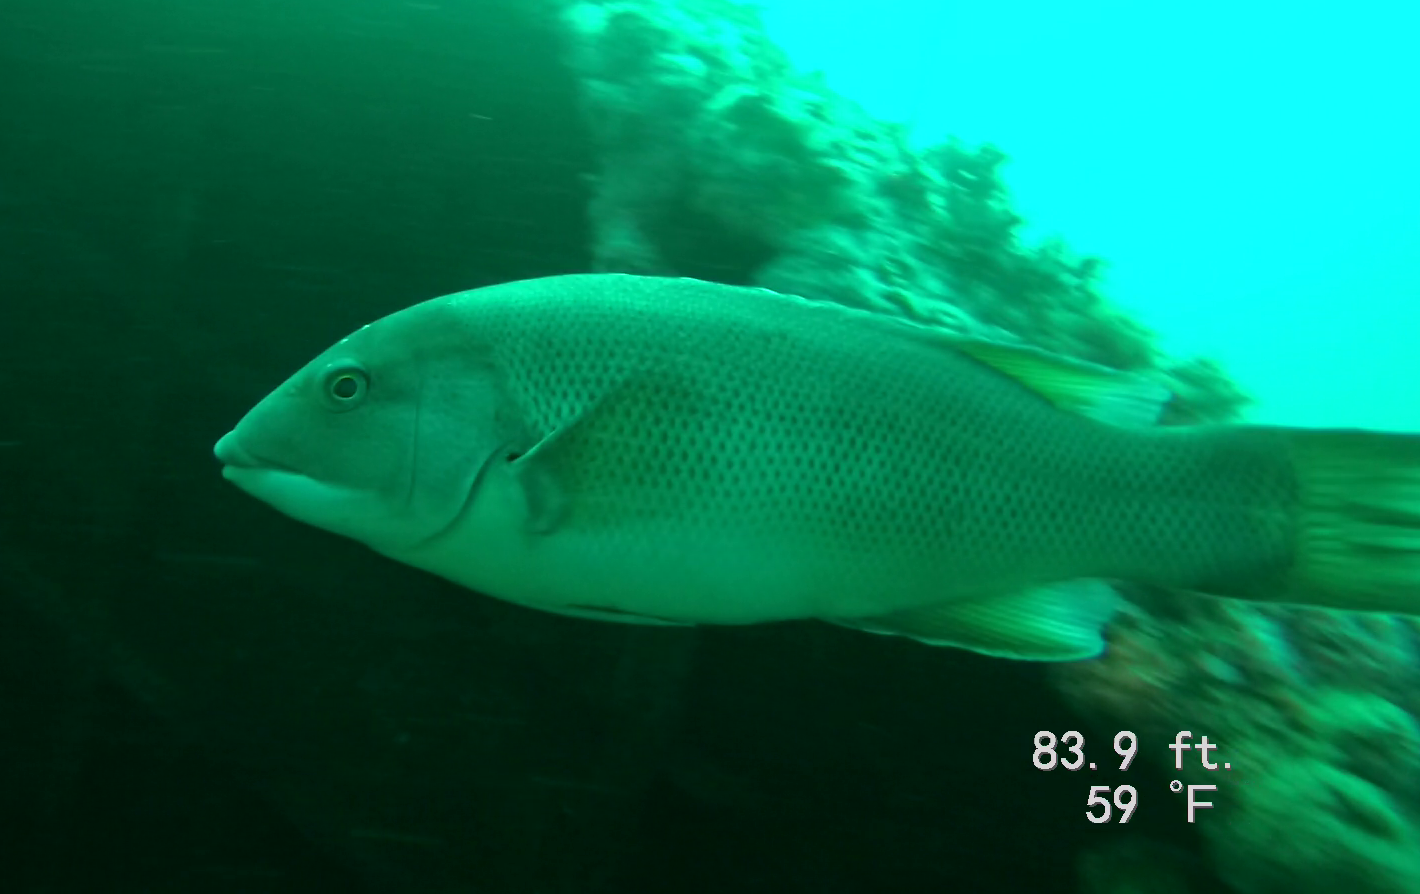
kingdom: Animalia
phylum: Chordata
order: Perciformes
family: Labridae
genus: Semicossyphus
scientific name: Semicossyphus pulcher
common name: California sheephead
